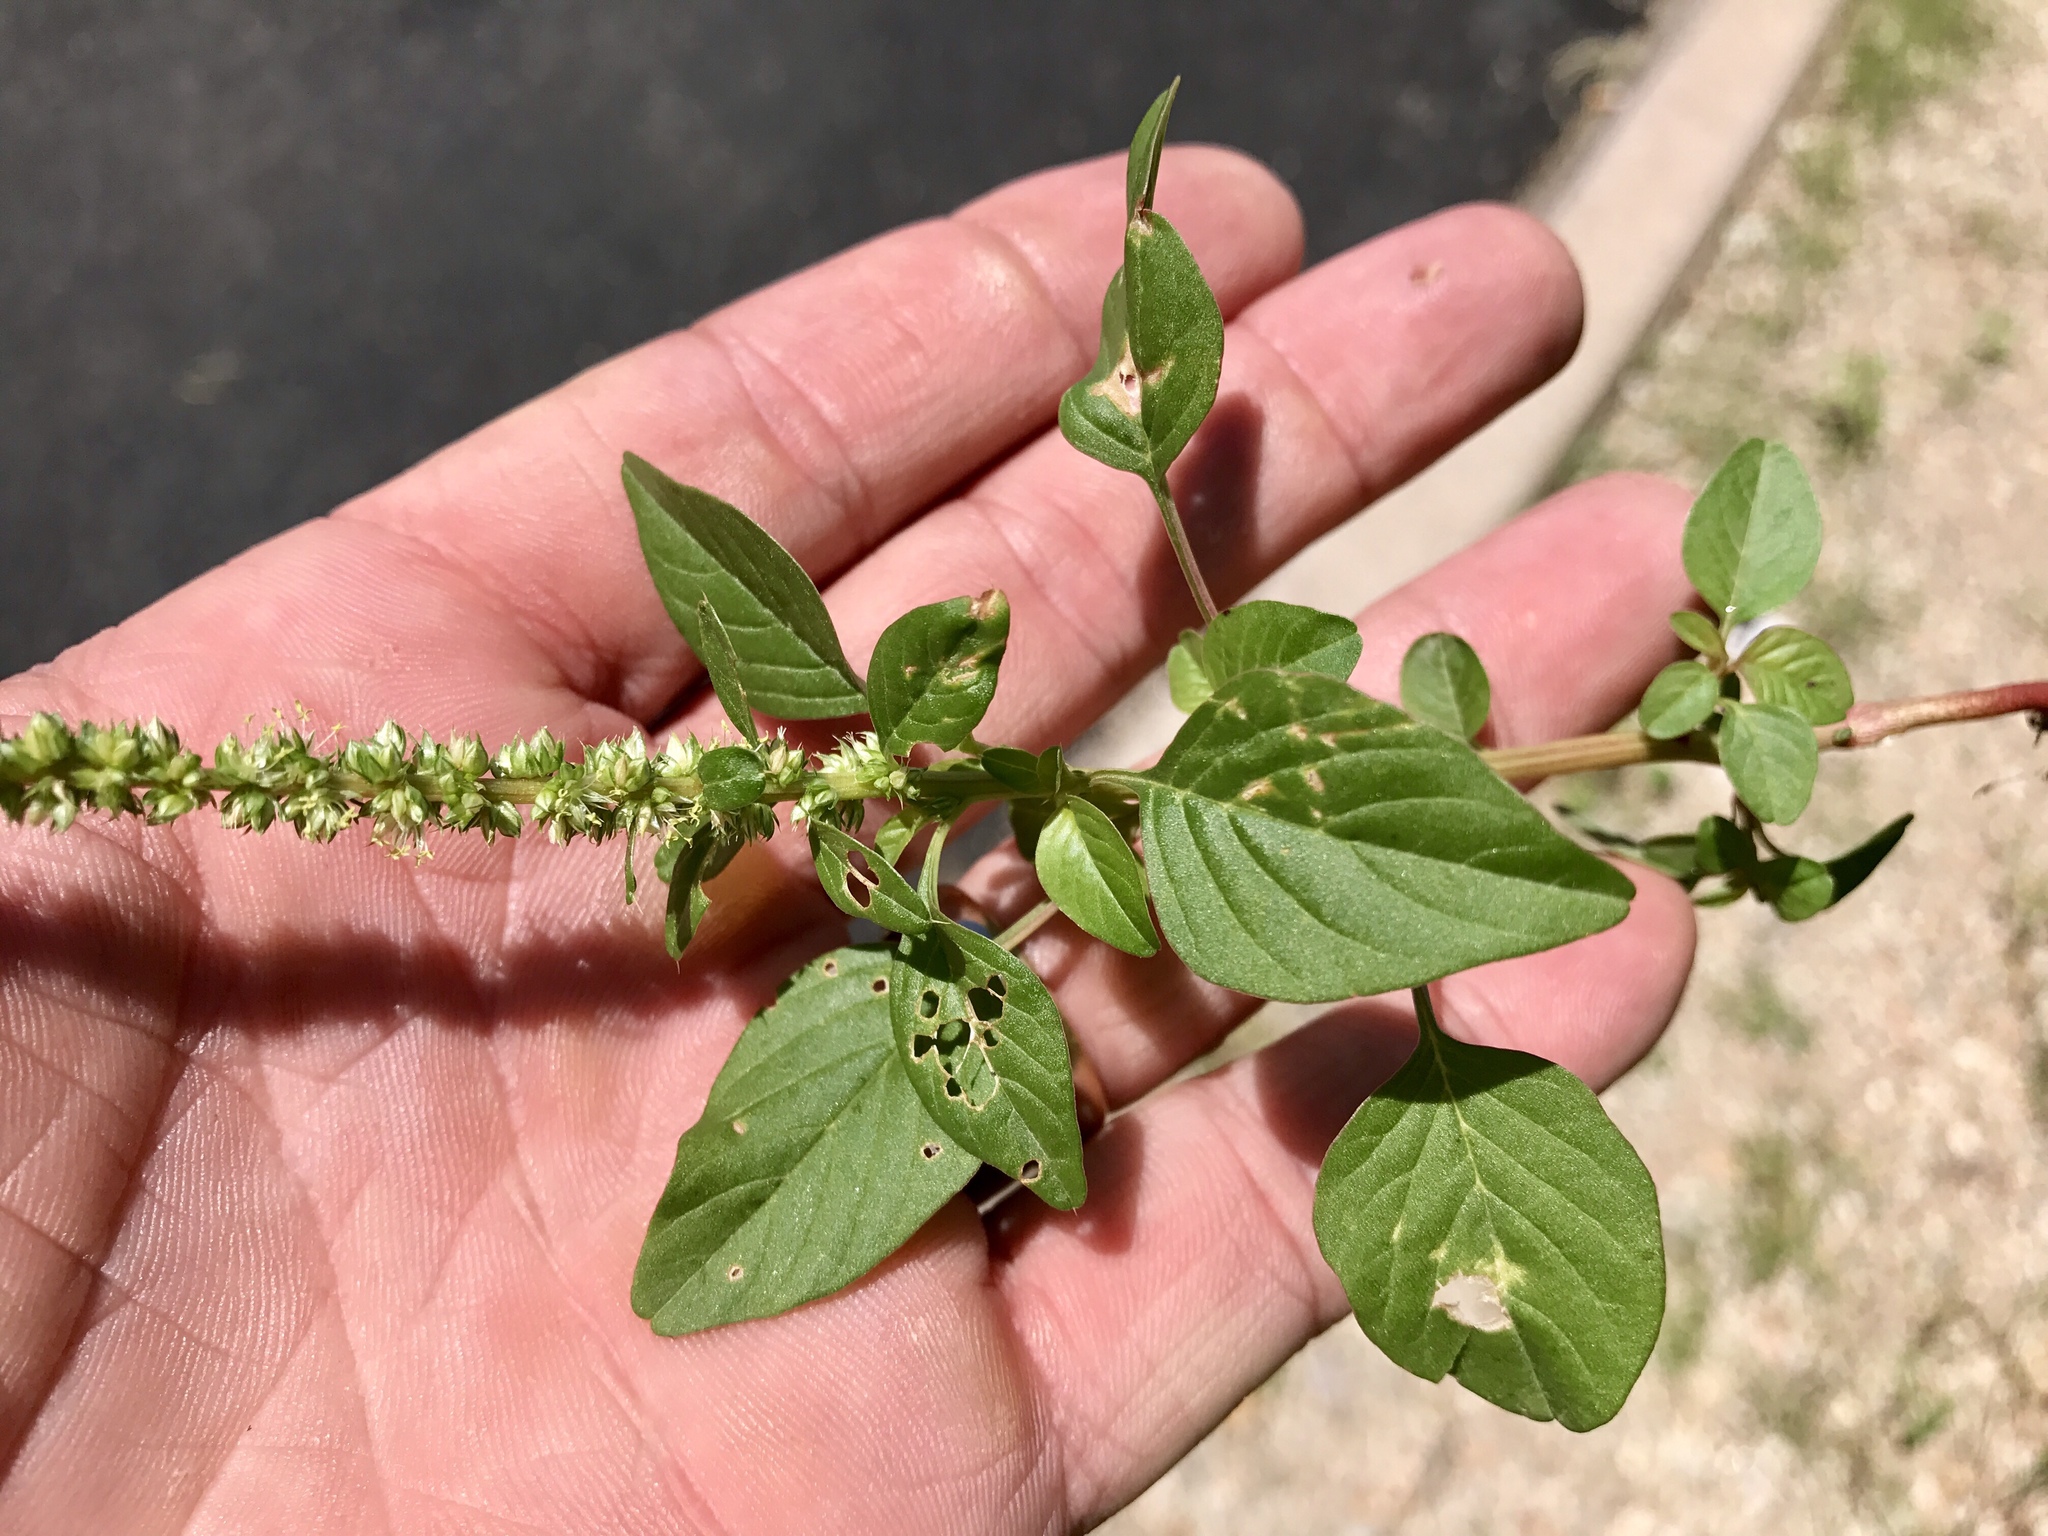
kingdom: Plantae
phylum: Tracheophyta
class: Magnoliopsida
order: Caryophyllales
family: Amaranthaceae
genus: Amaranthus
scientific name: Amaranthus palmeri
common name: Dioecious amaranth
